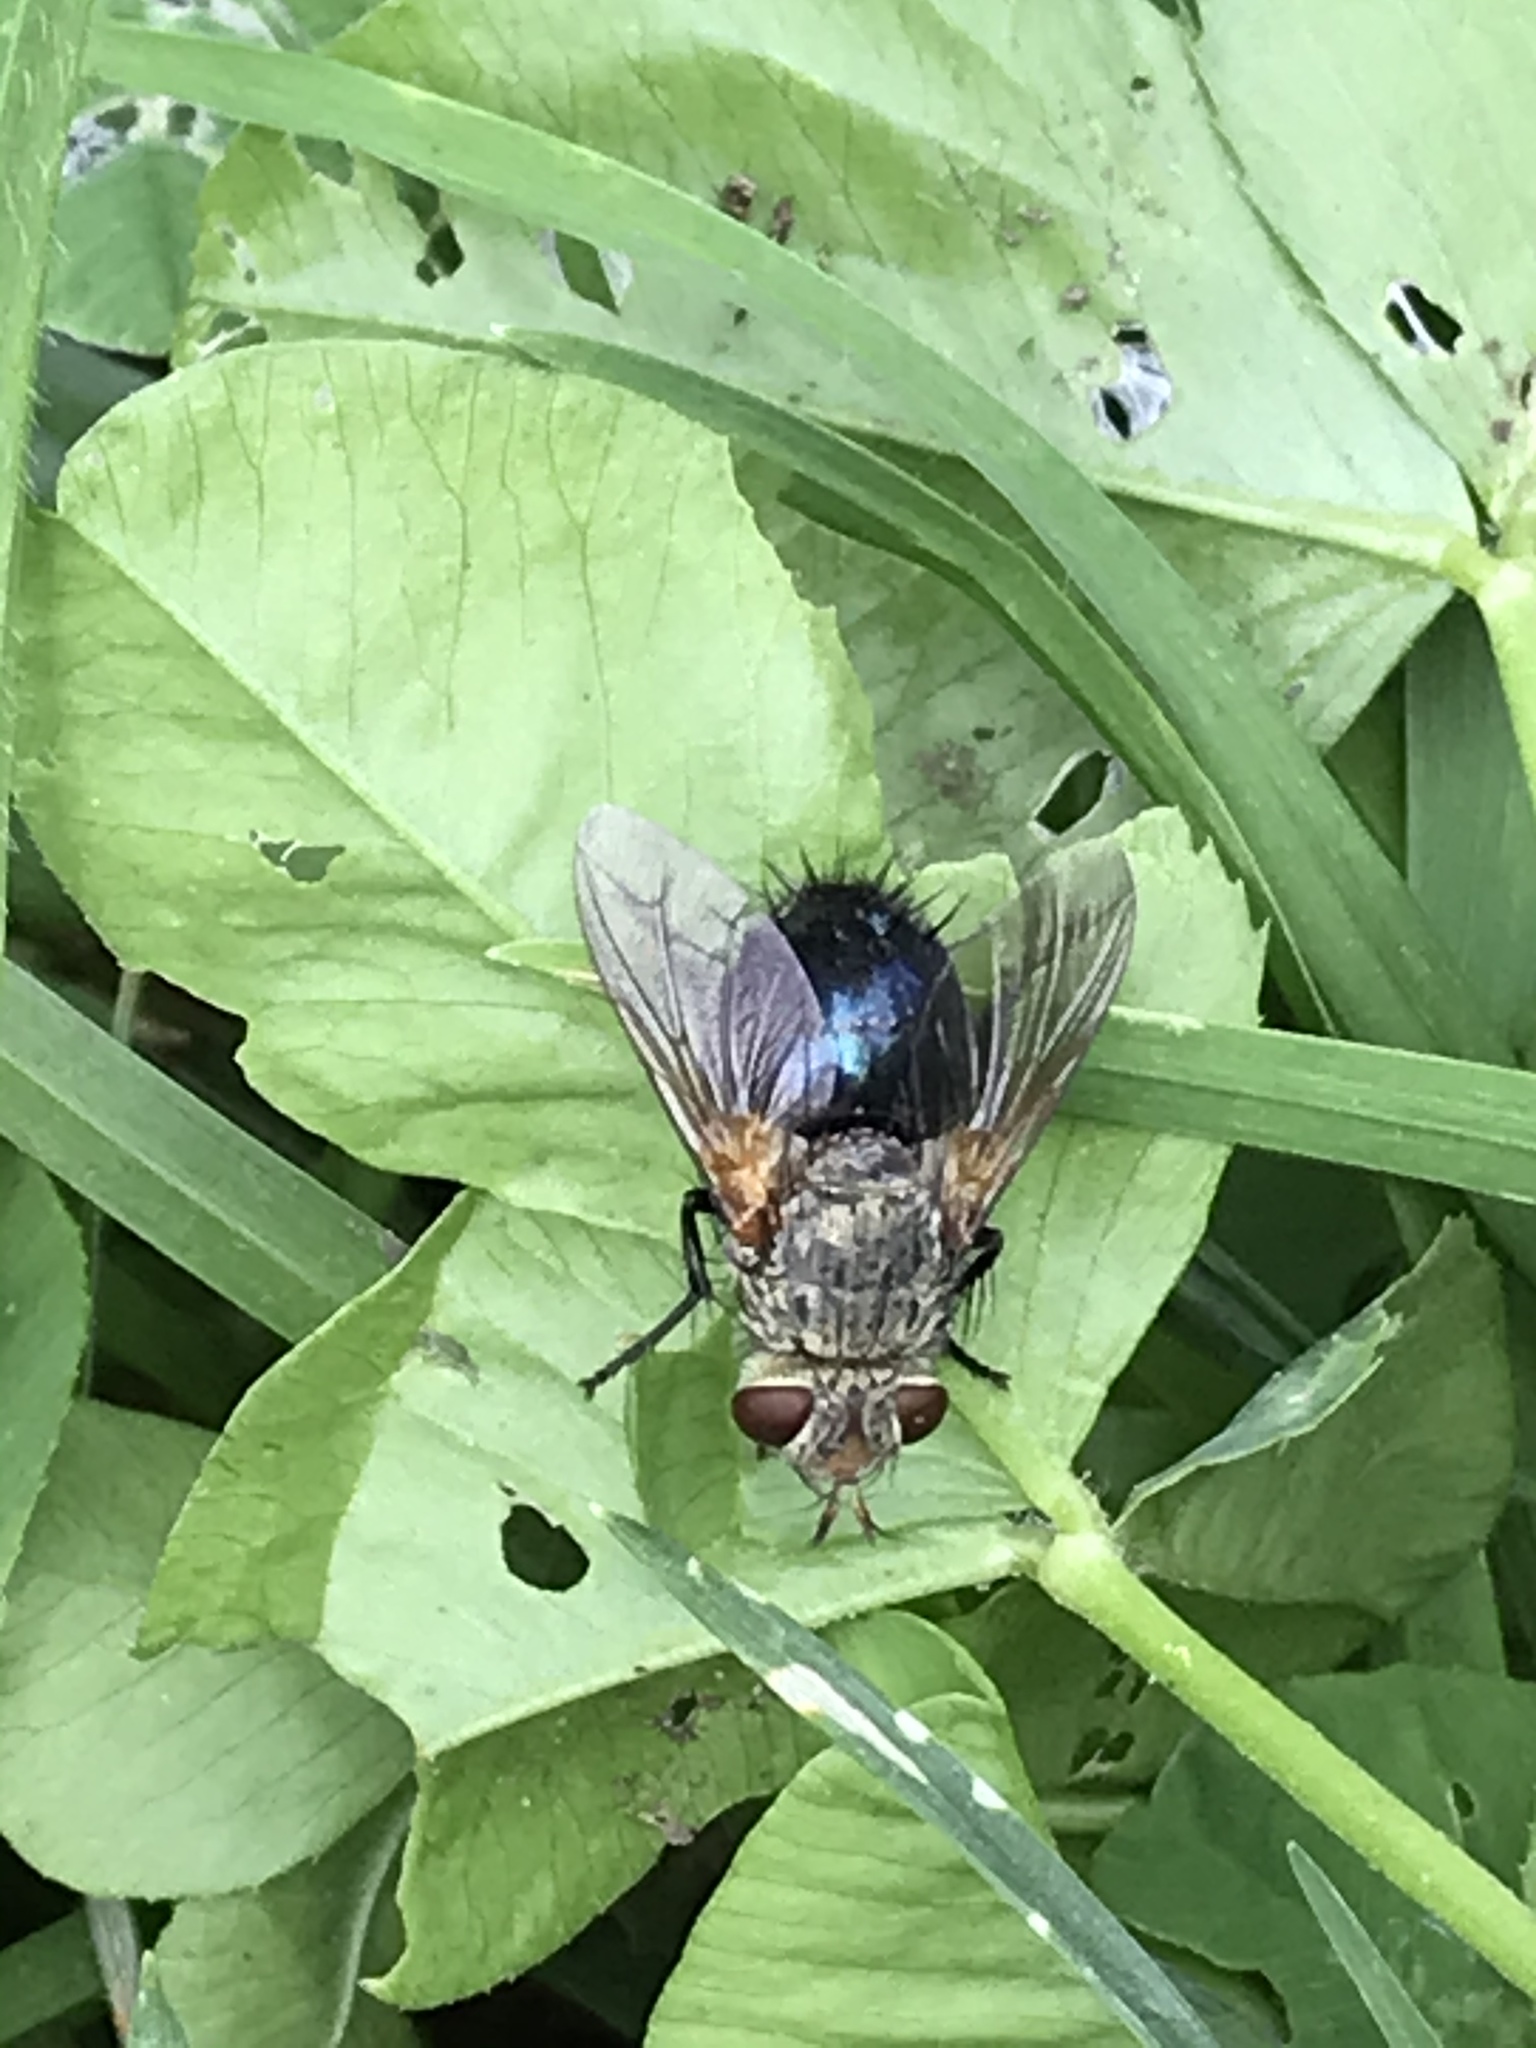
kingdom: Animalia
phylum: Arthropoda
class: Insecta
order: Diptera
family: Tachinidae
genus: Archytas
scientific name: Archytas
